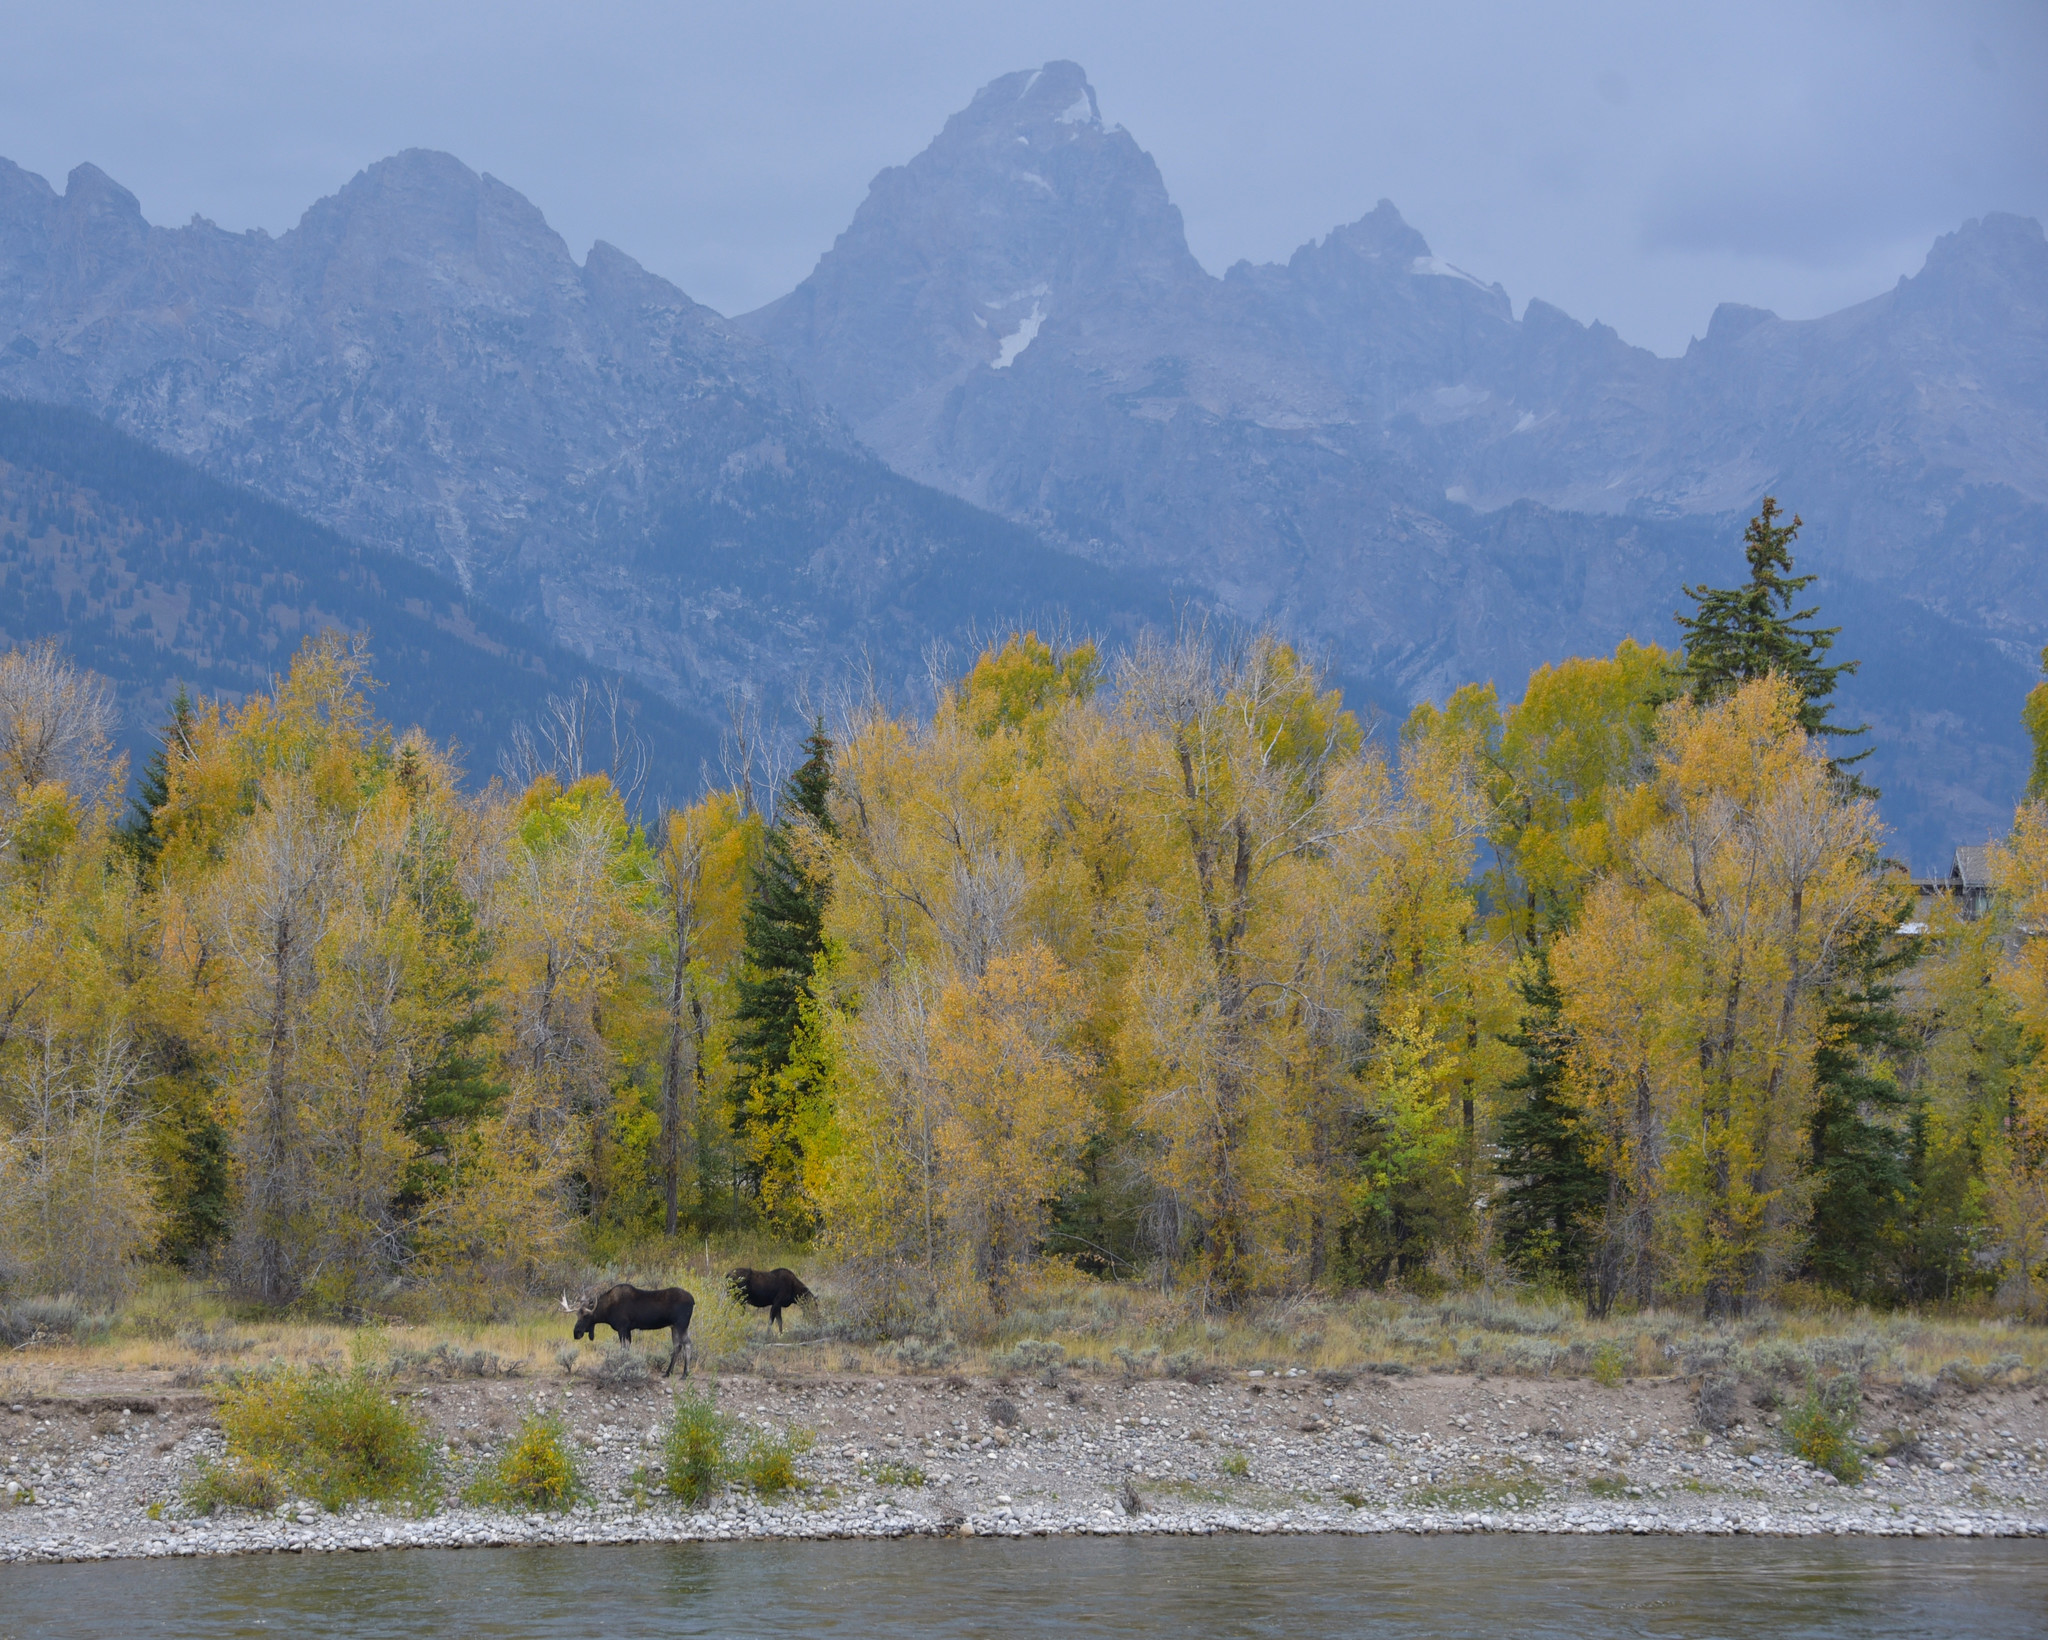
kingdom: Animalia
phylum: Chordata
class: Mammalia
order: Artiodactyla
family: Cervidae
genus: Alces
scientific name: Alces alces
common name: Moose
